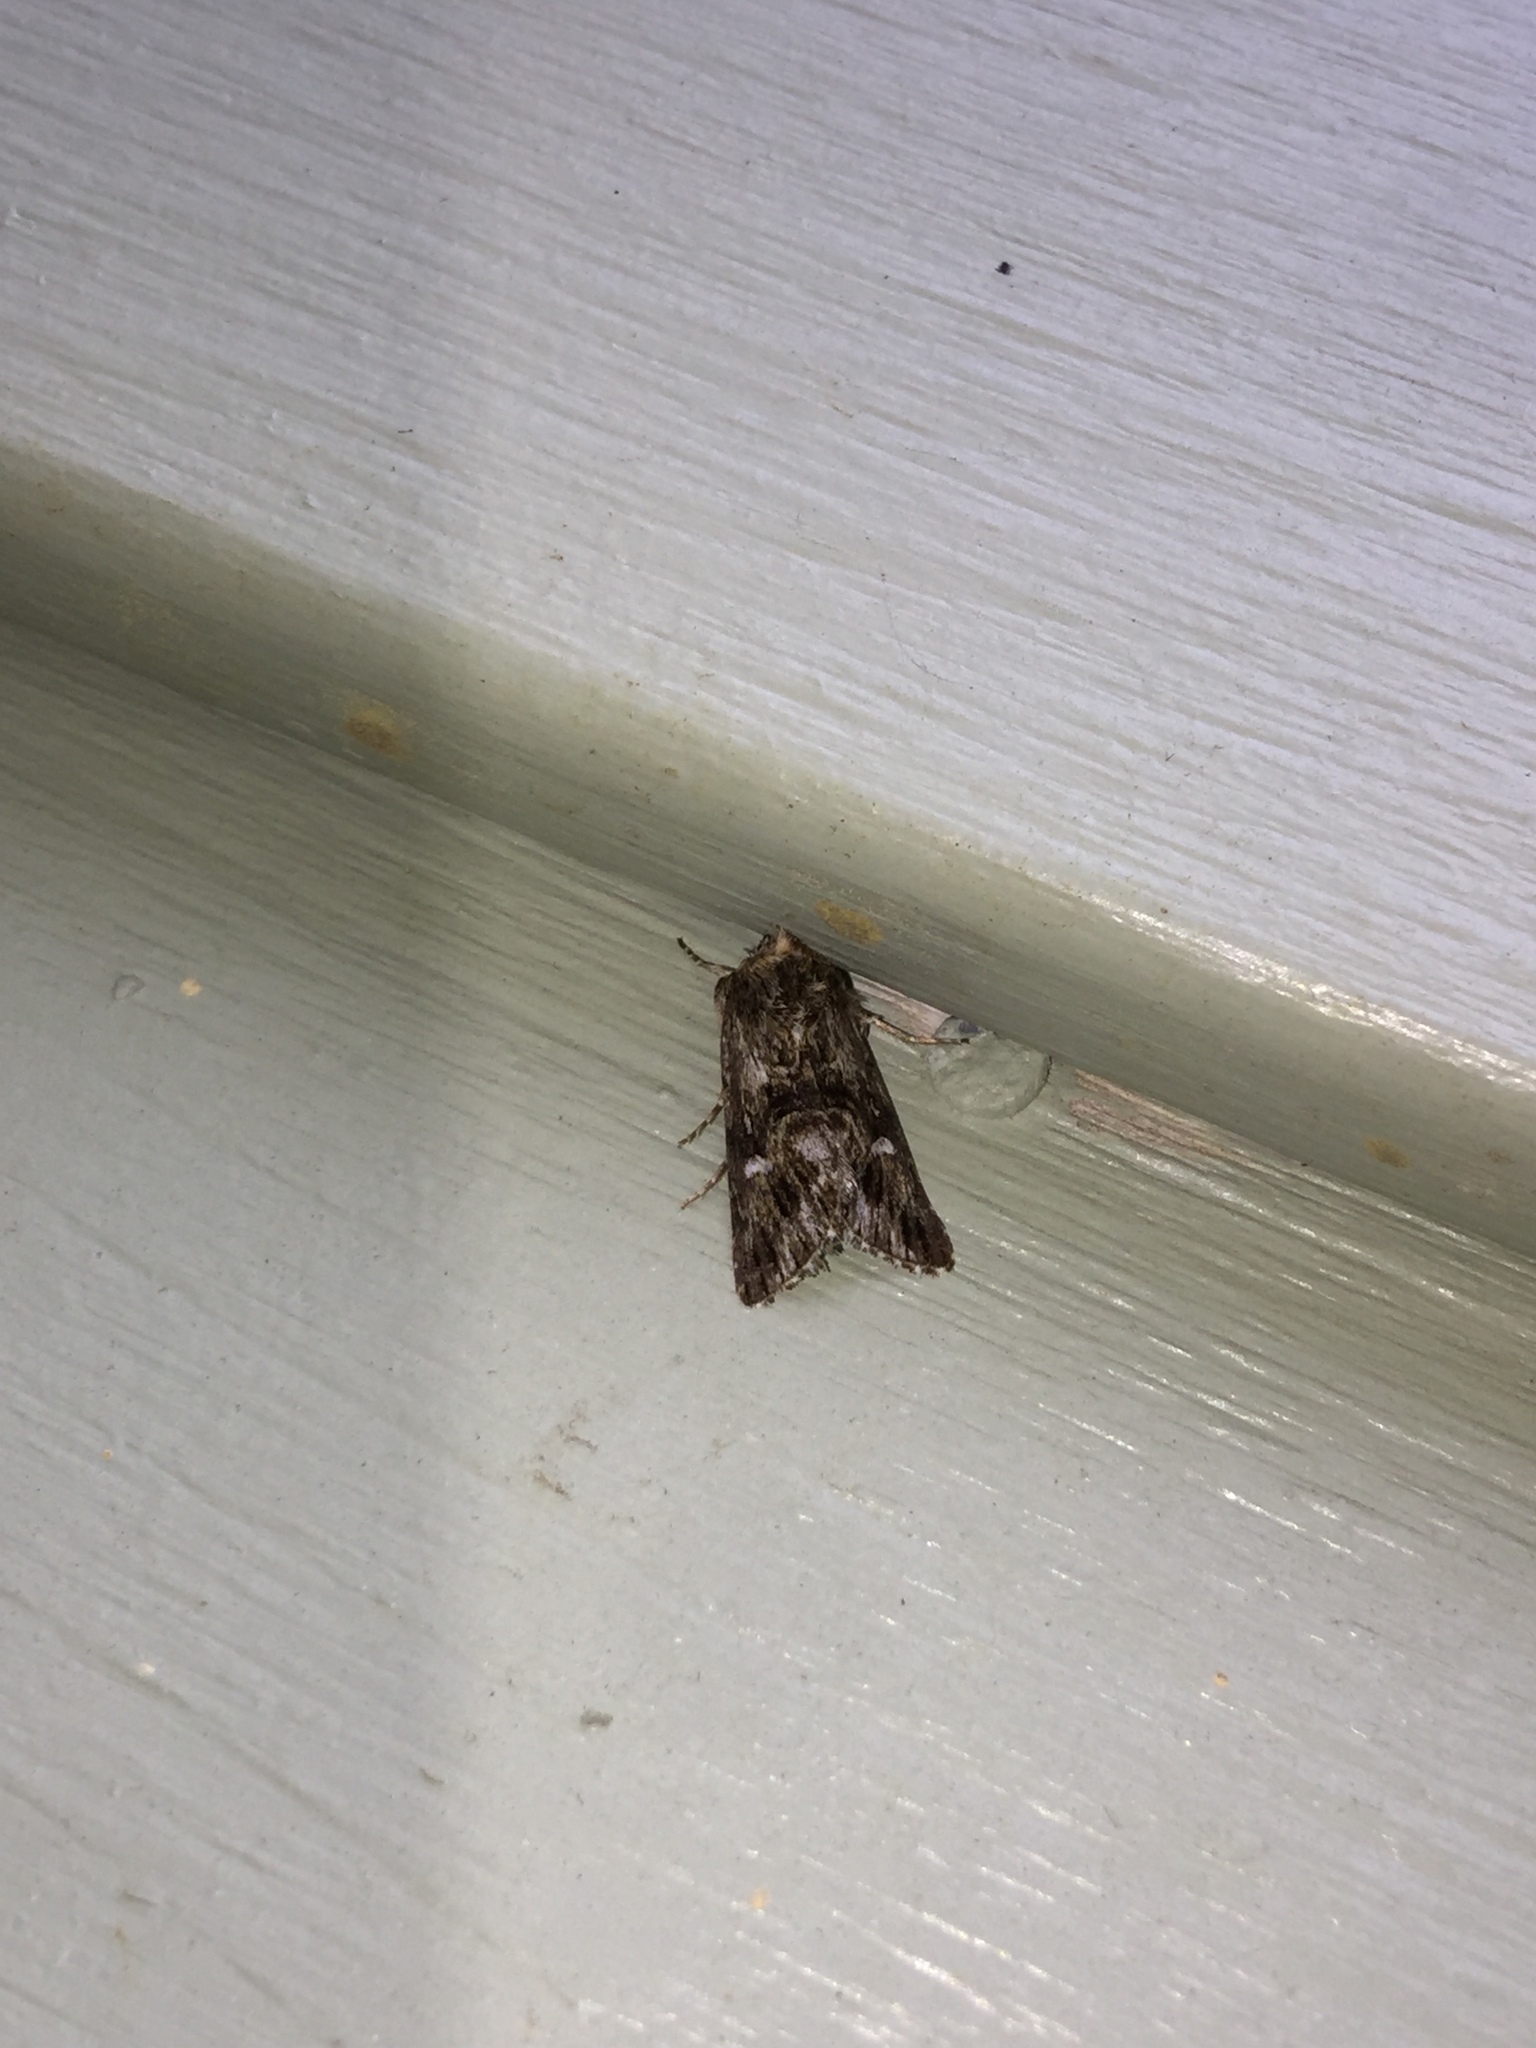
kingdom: Animalia
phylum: Arthropoda
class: Insecta
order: Lepidoptera
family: Noctuidae
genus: Calophasia
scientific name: Calophasia lunula
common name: Toadflax brocade
